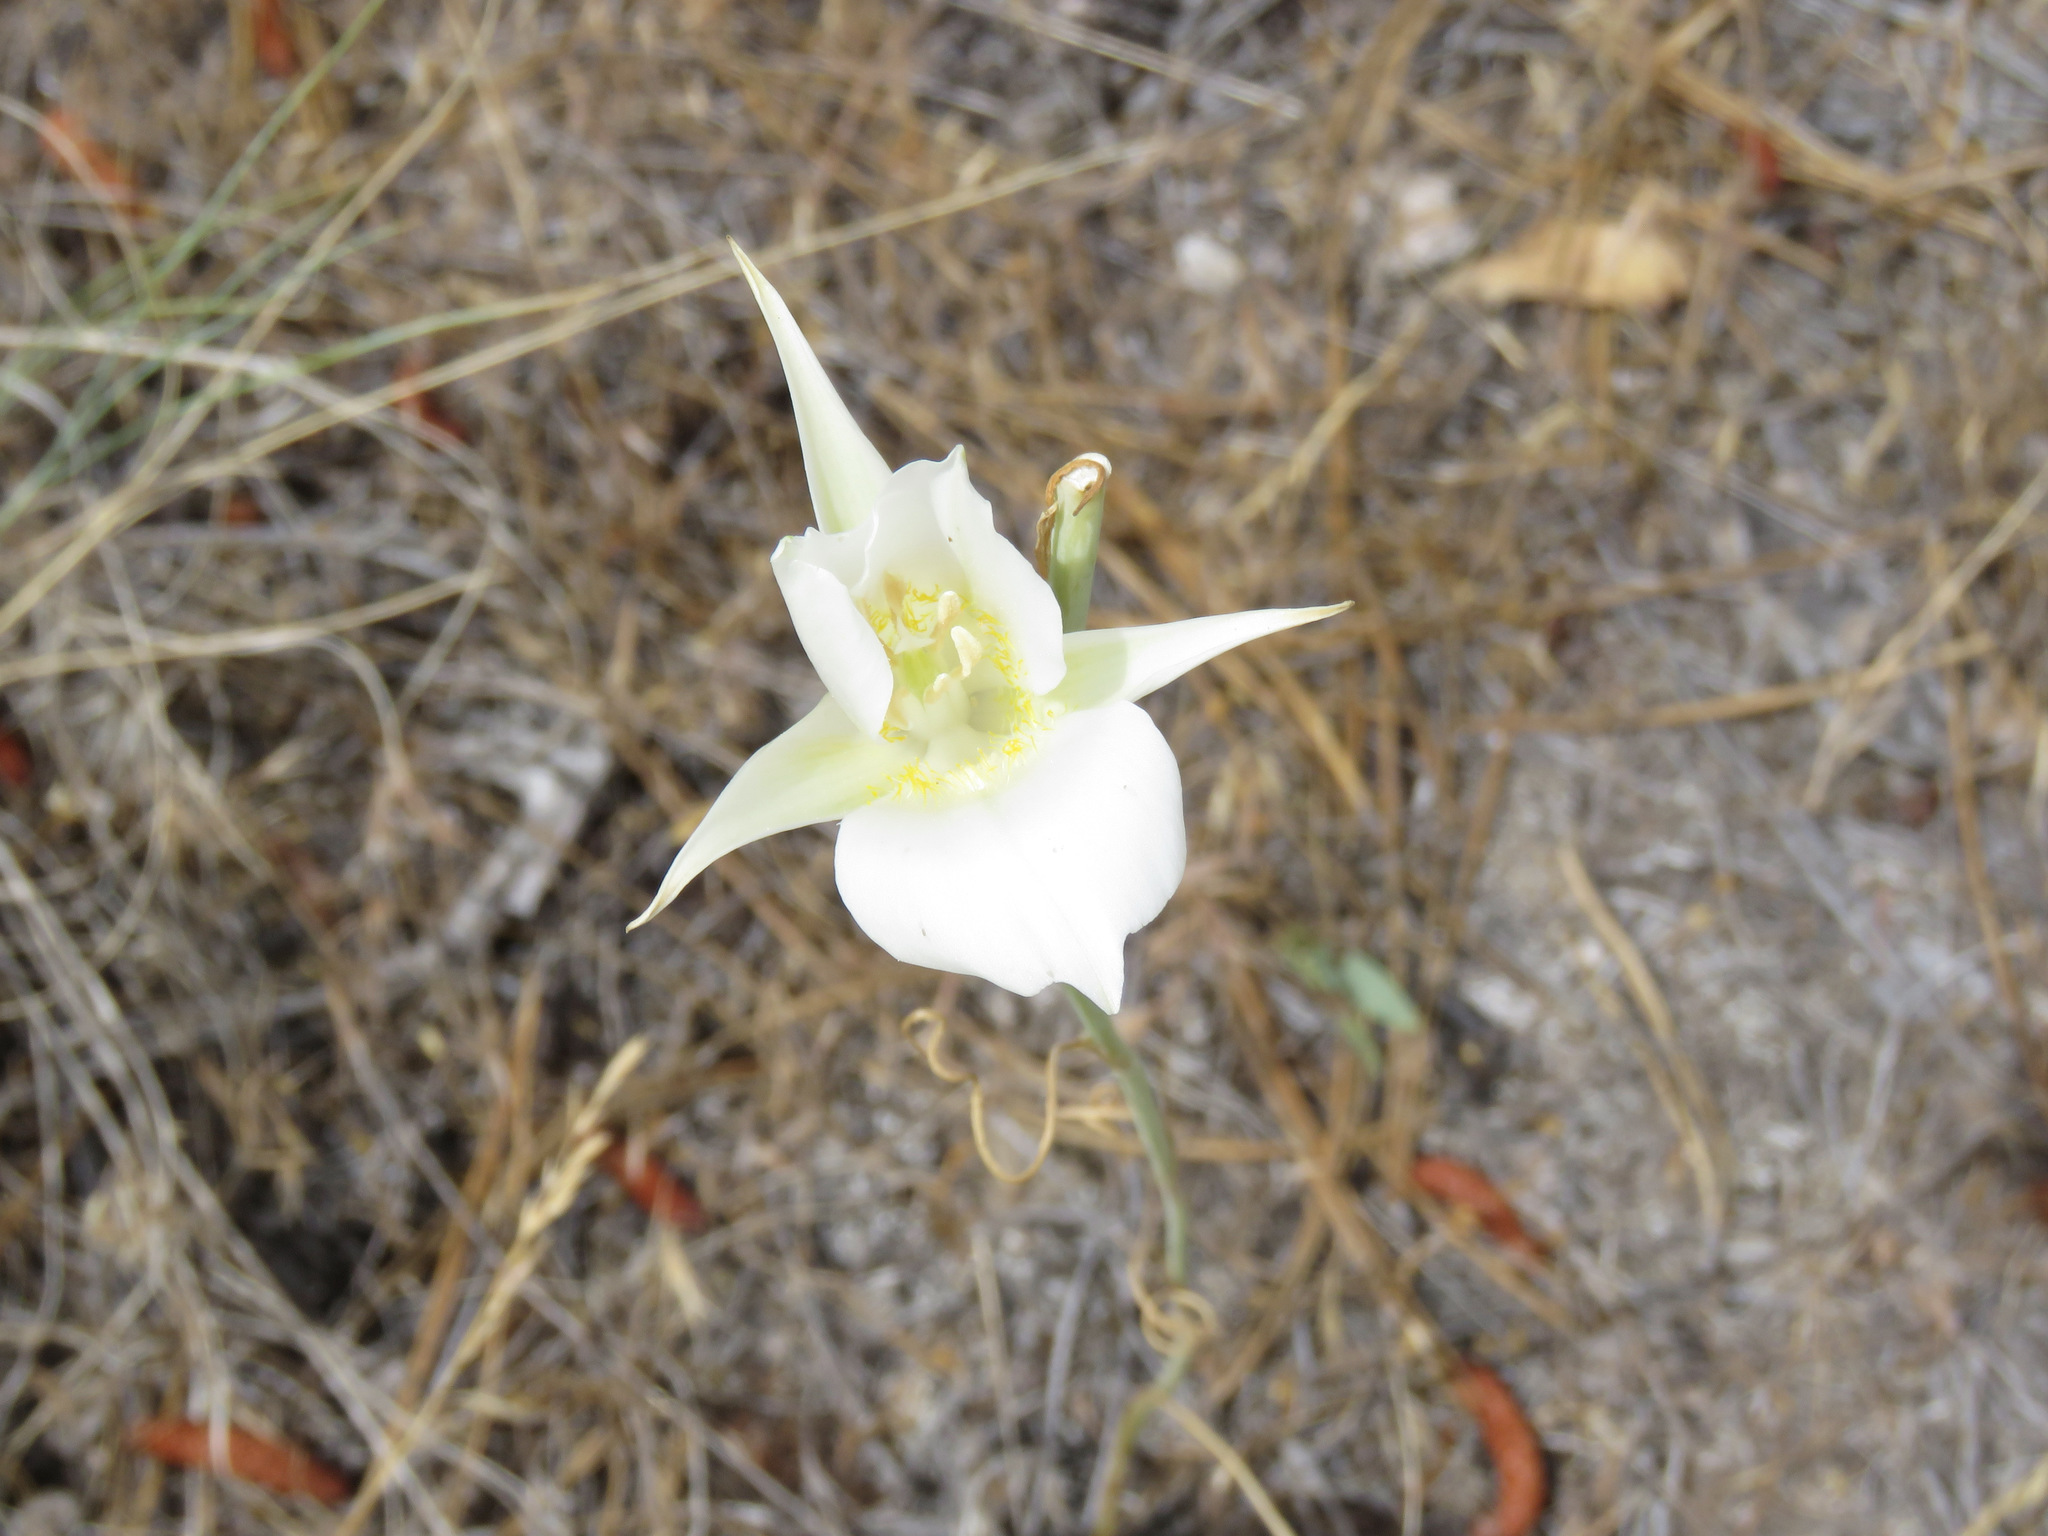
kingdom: Plantae
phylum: Tracheophyta
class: Liliopsida
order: Liliales
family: Liliaceae
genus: Calochortus
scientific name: Calochortus macrocarpus
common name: Green-band mariposa lily
